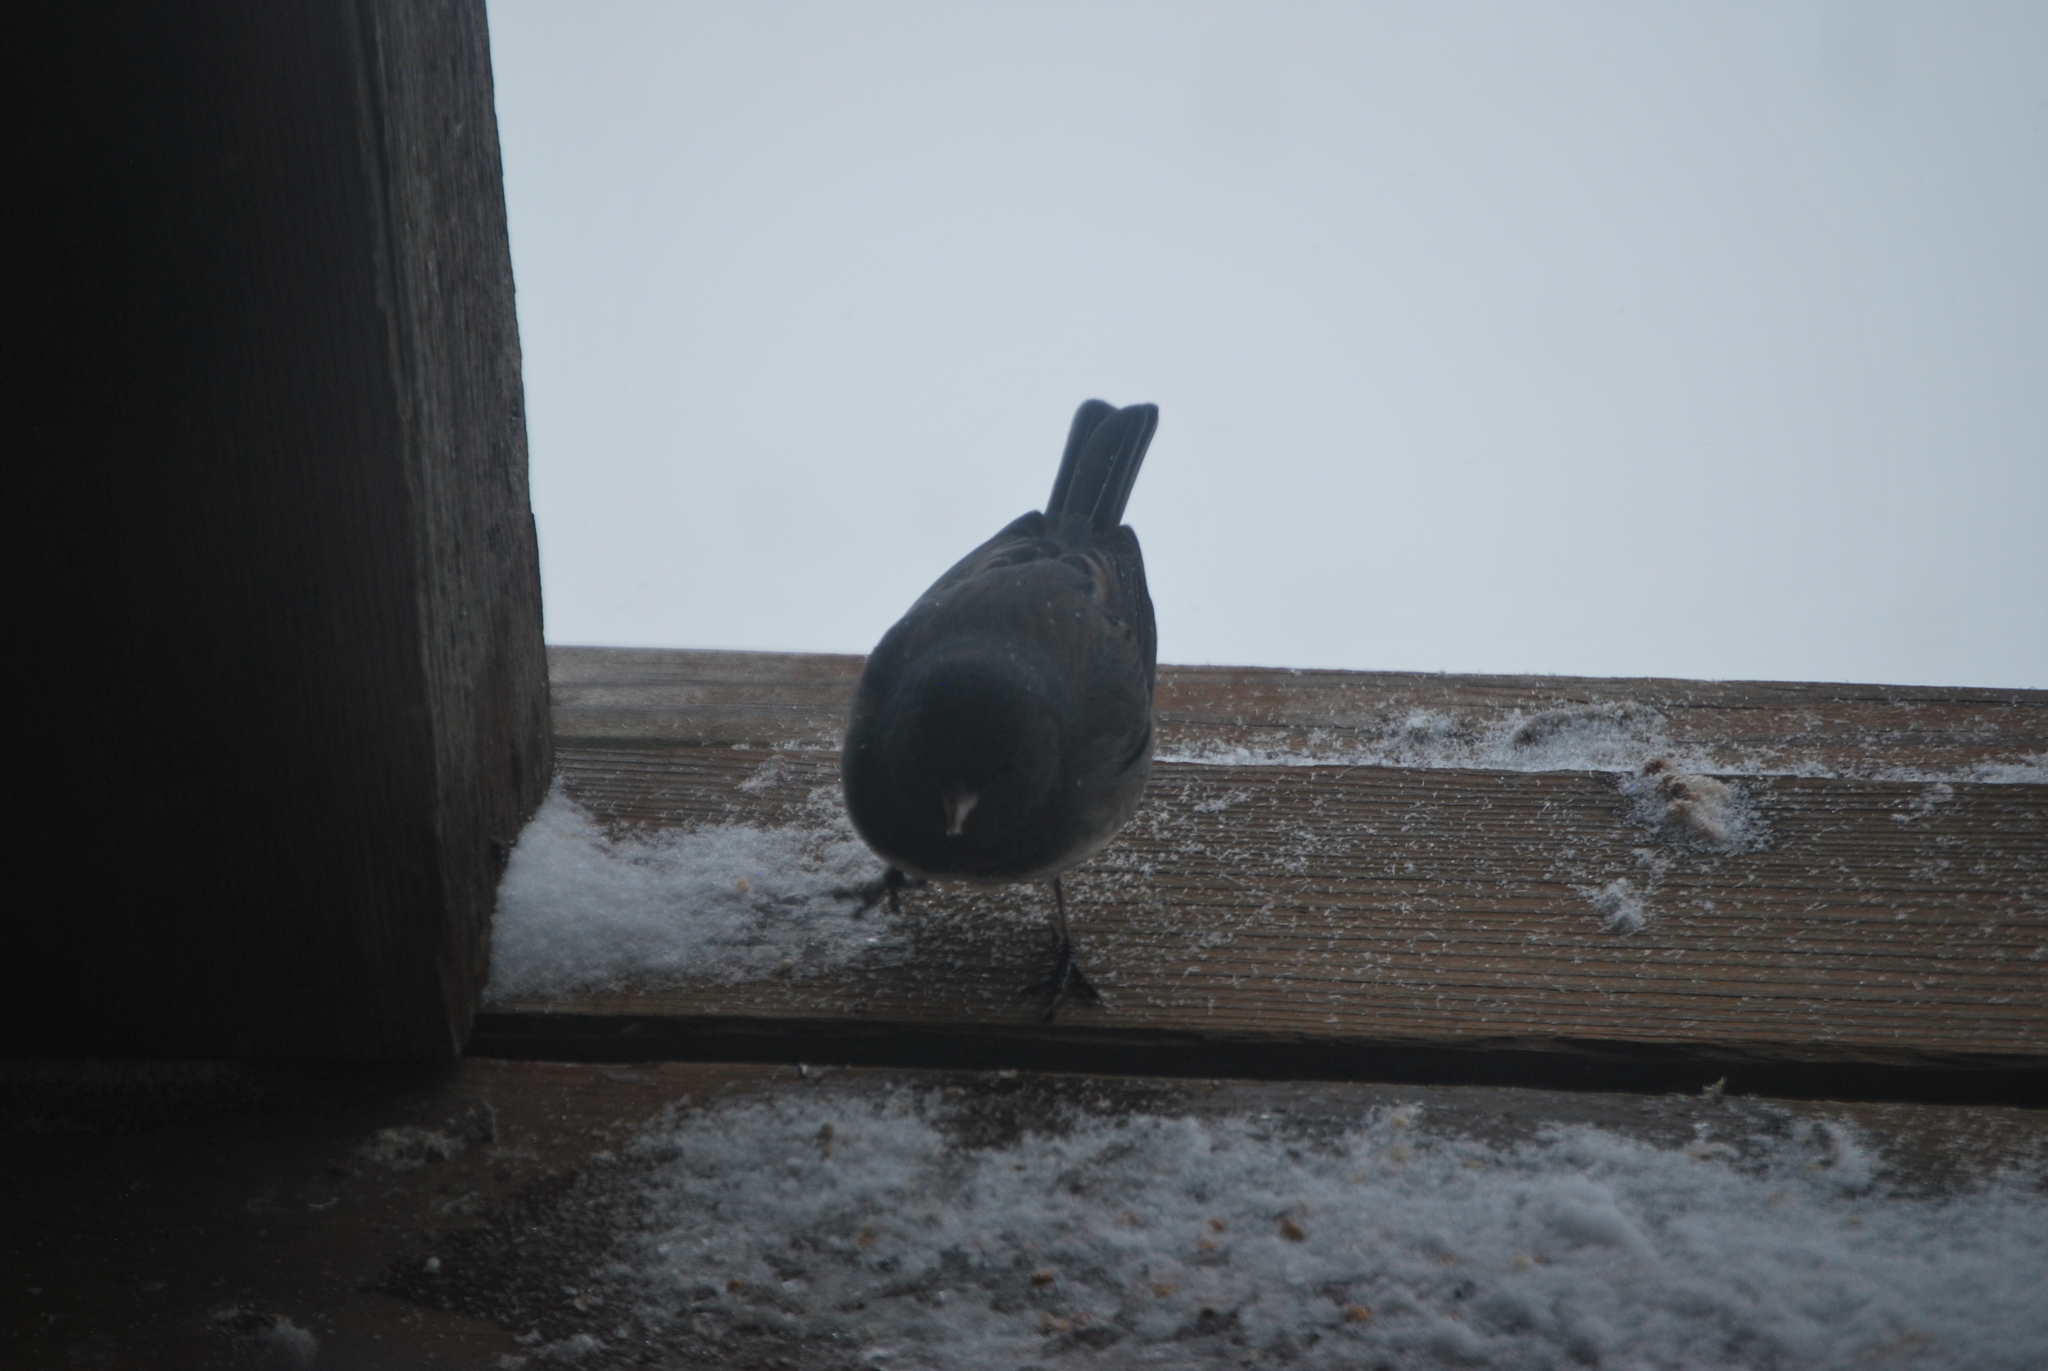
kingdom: Animalia
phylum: Chordata
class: Aves
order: Passeriformes
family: Passerellidae
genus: Junco
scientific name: Junco hyemalis
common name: Dark-eyed junco
